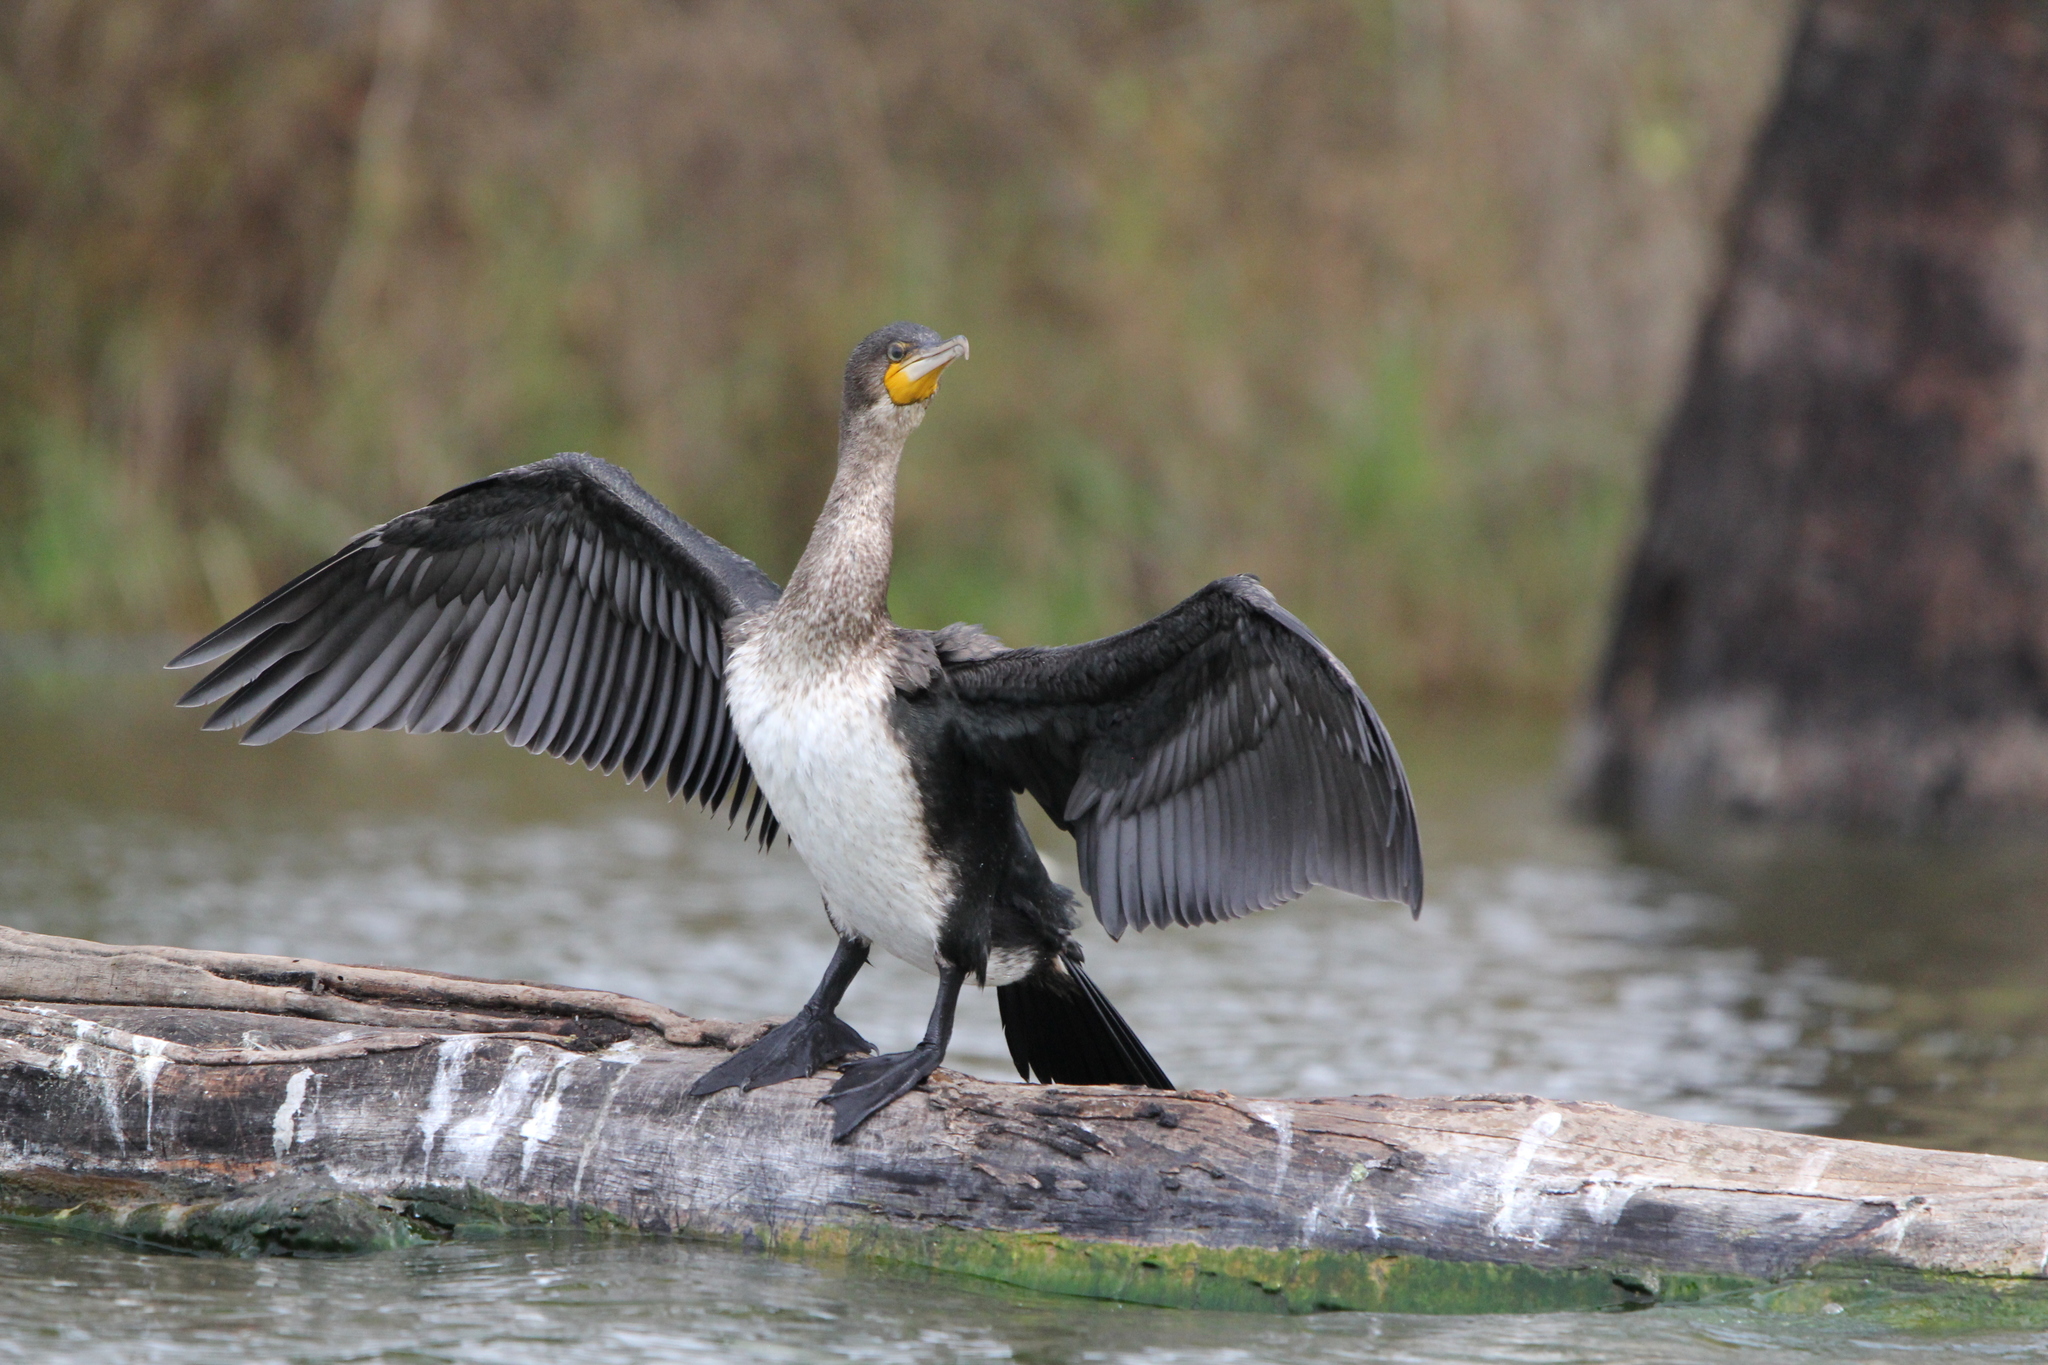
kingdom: Animalia
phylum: Chordata
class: Aves
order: Suliformes
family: Phalacrocoracidae
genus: Phalacrocorax
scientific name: Phalacrocorax carbo
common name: Great cormorant
